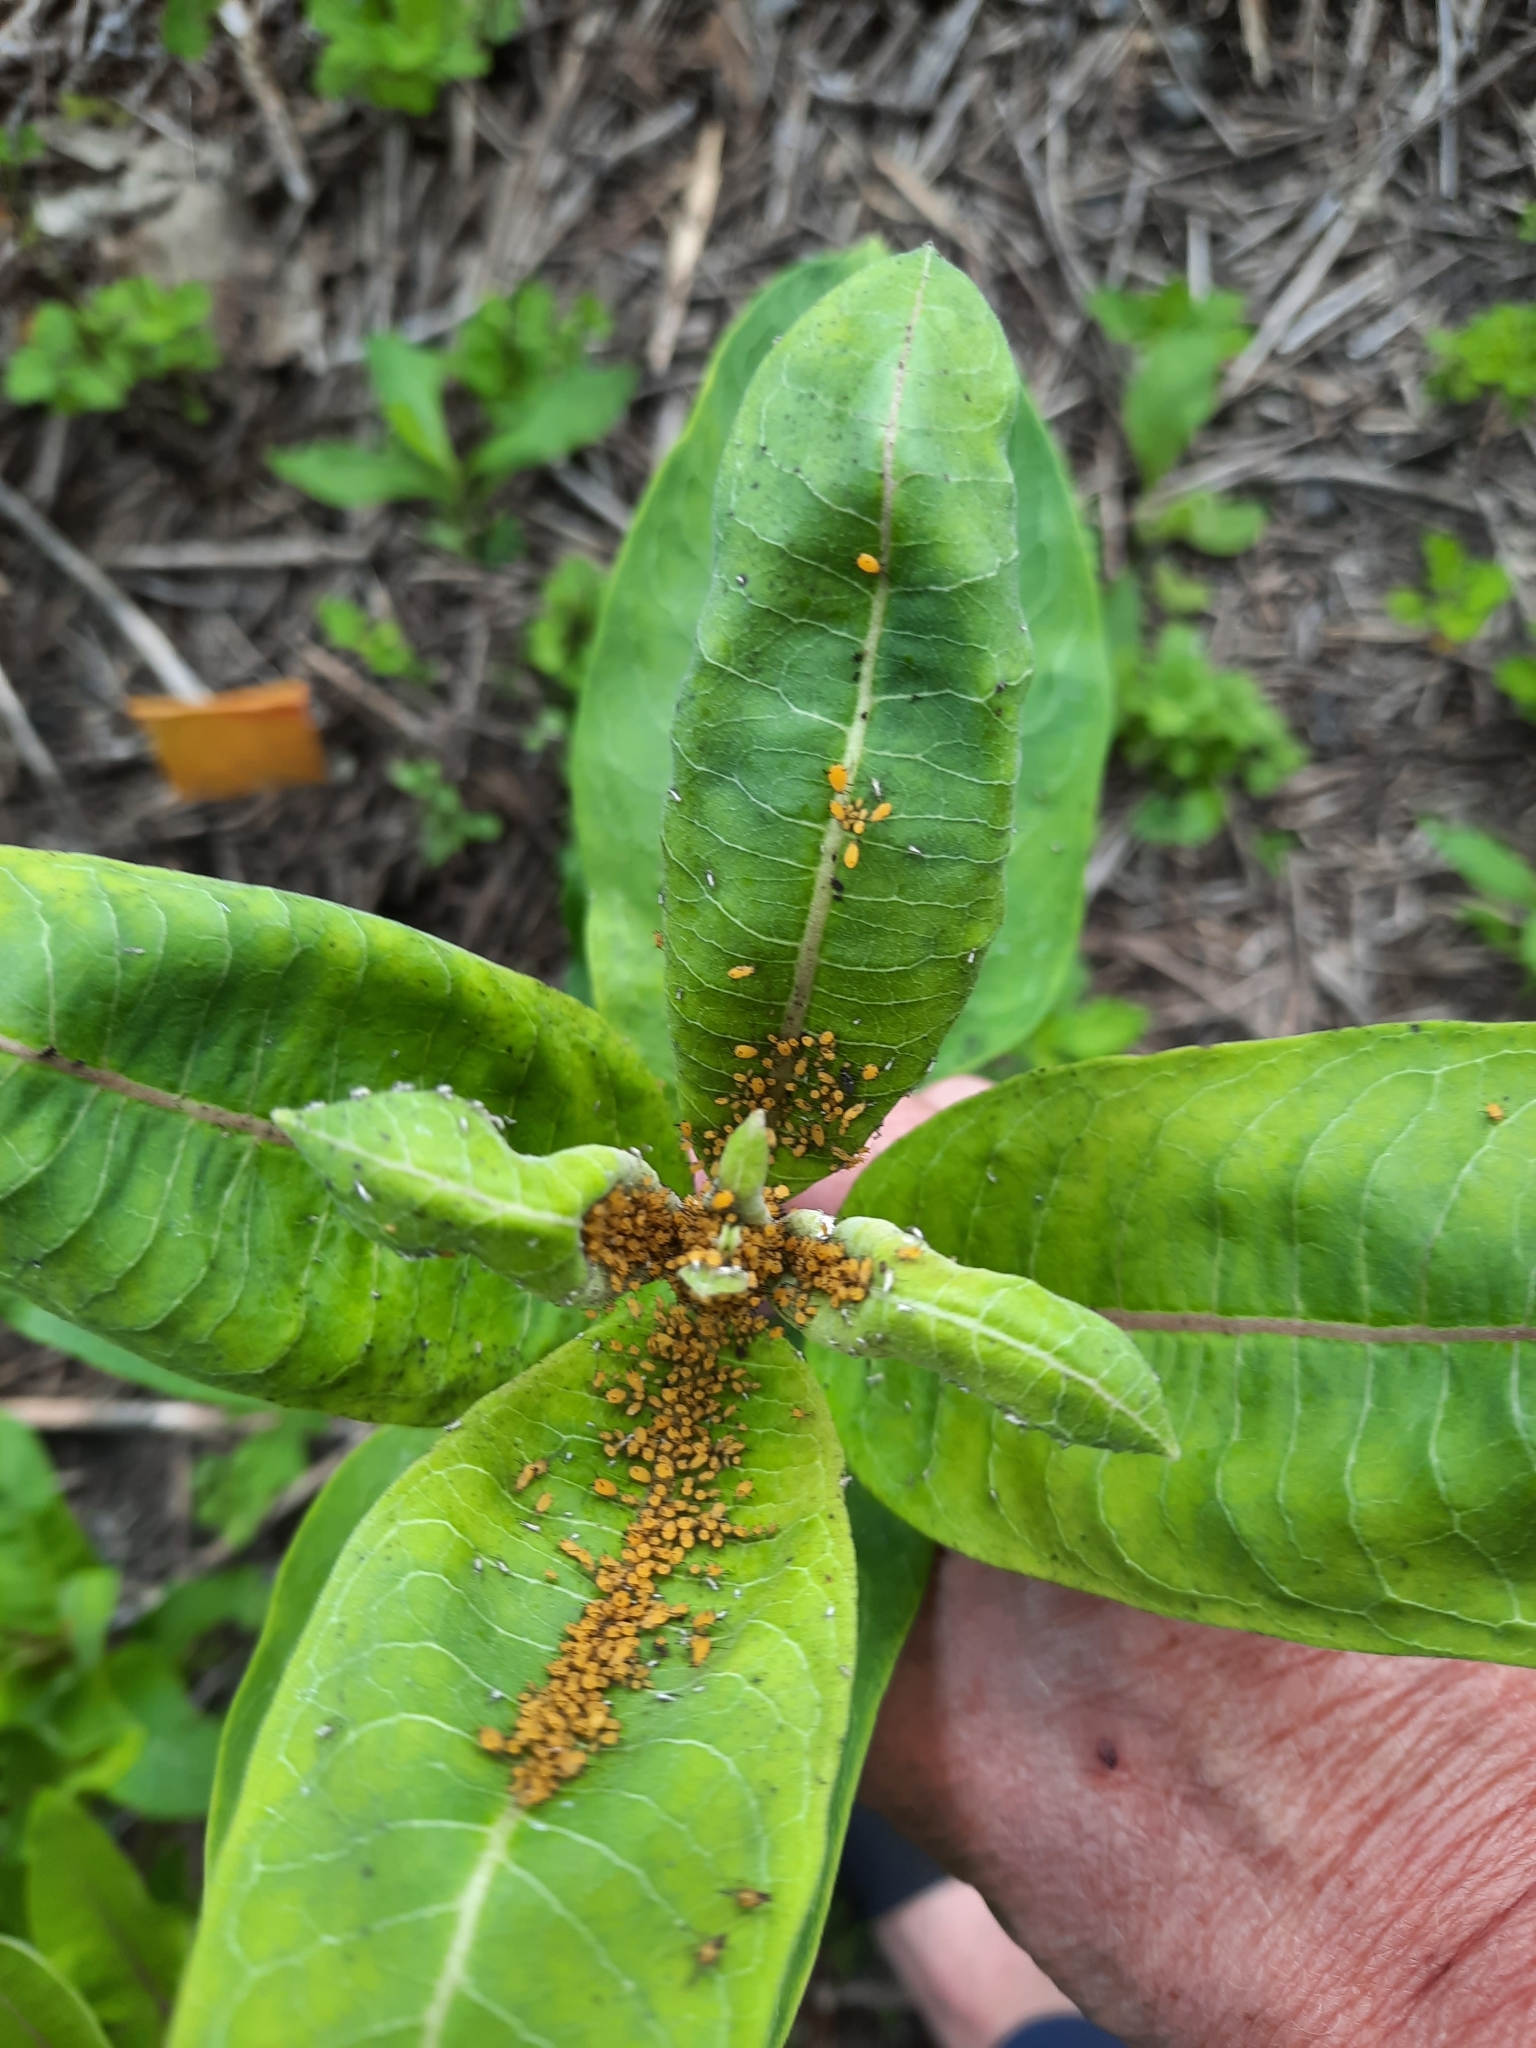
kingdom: Animalia
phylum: Arthropoda
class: Insecta
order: Hemiptera
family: Aphididae
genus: Aphis
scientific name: Aphis nerii
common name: Oleander aphid
